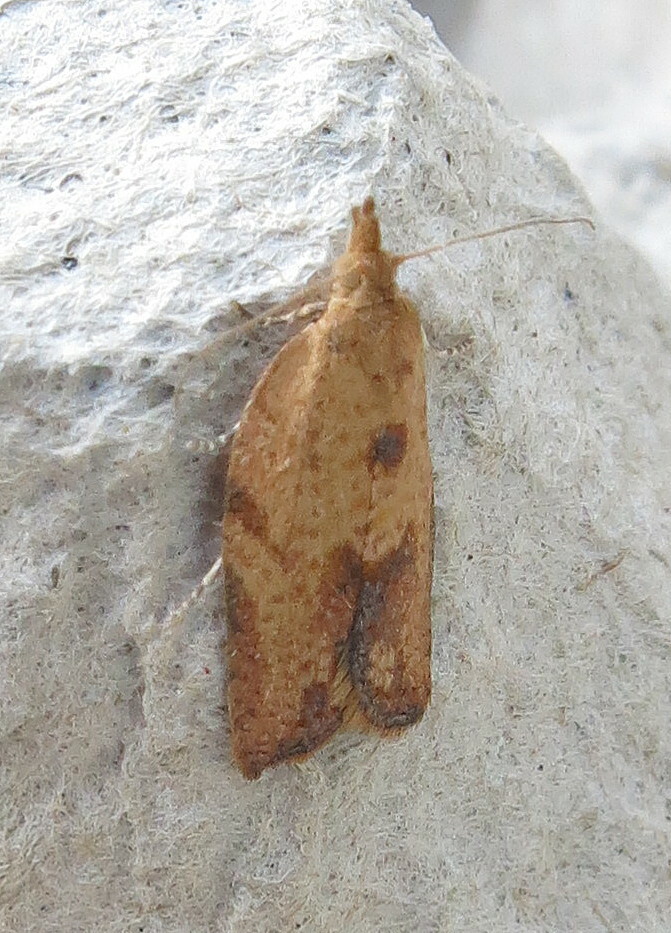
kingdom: Animalia
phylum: Arthropoda
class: Insecta
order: Lepidoptera
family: Tortricidae
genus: Epiphyas
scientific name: Epiphyas postvittana
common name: Light brown apple moth
